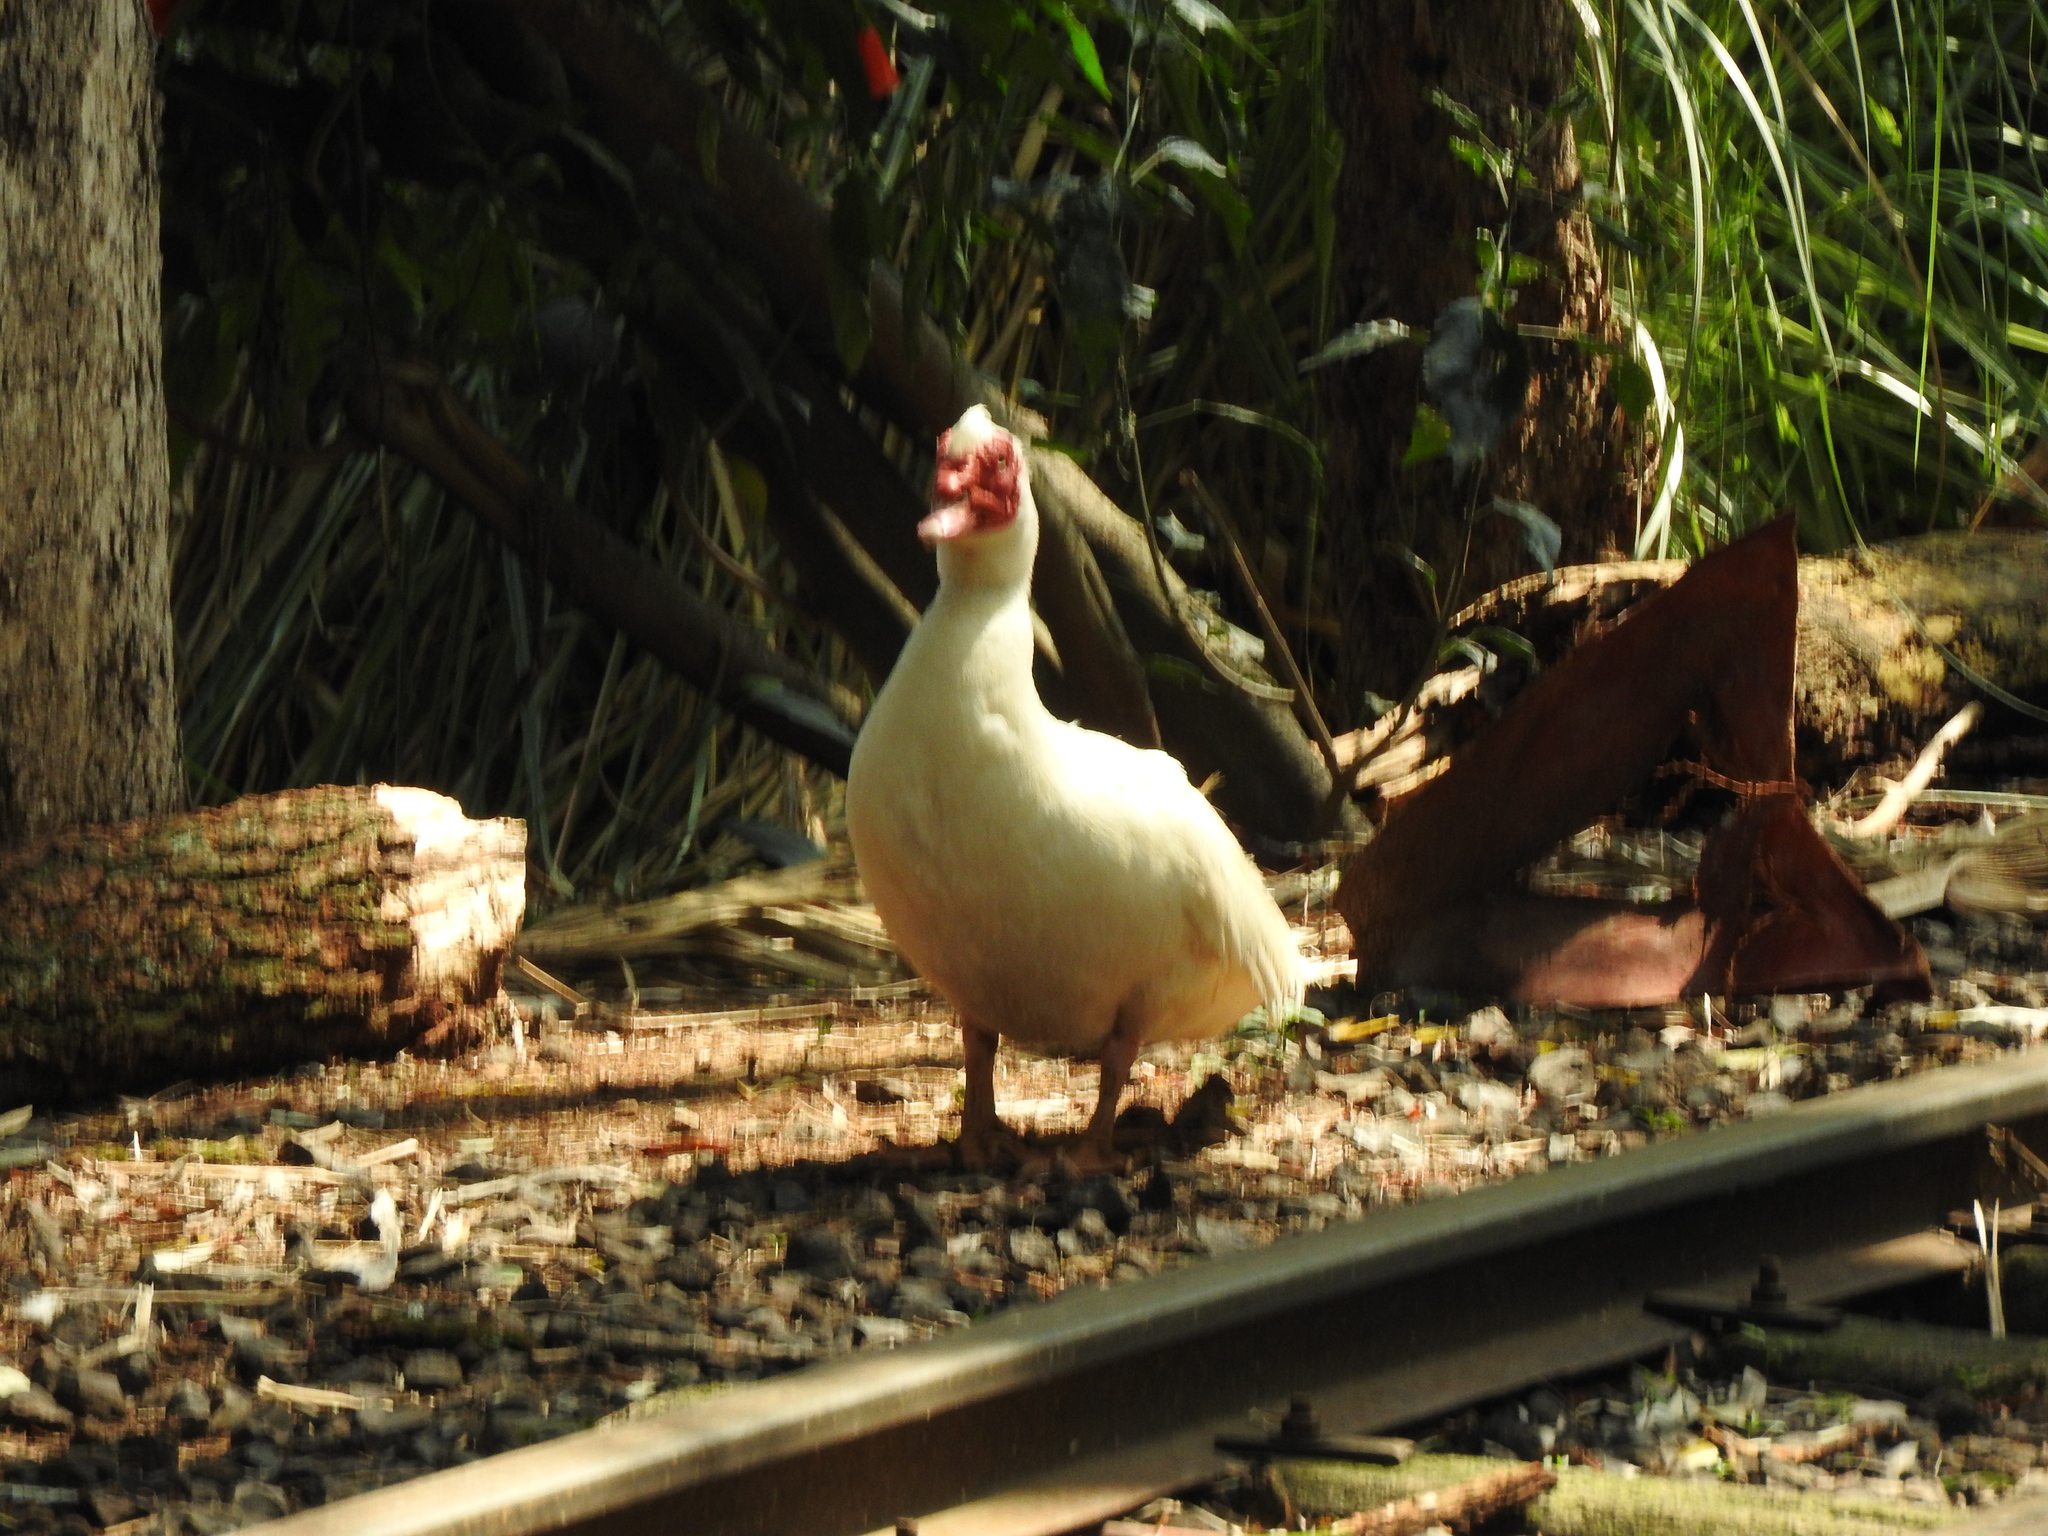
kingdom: Animalia
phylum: Chordata
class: Aves
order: Anseriformes
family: Anatidae
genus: Cairina
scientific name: Cairina moschata
